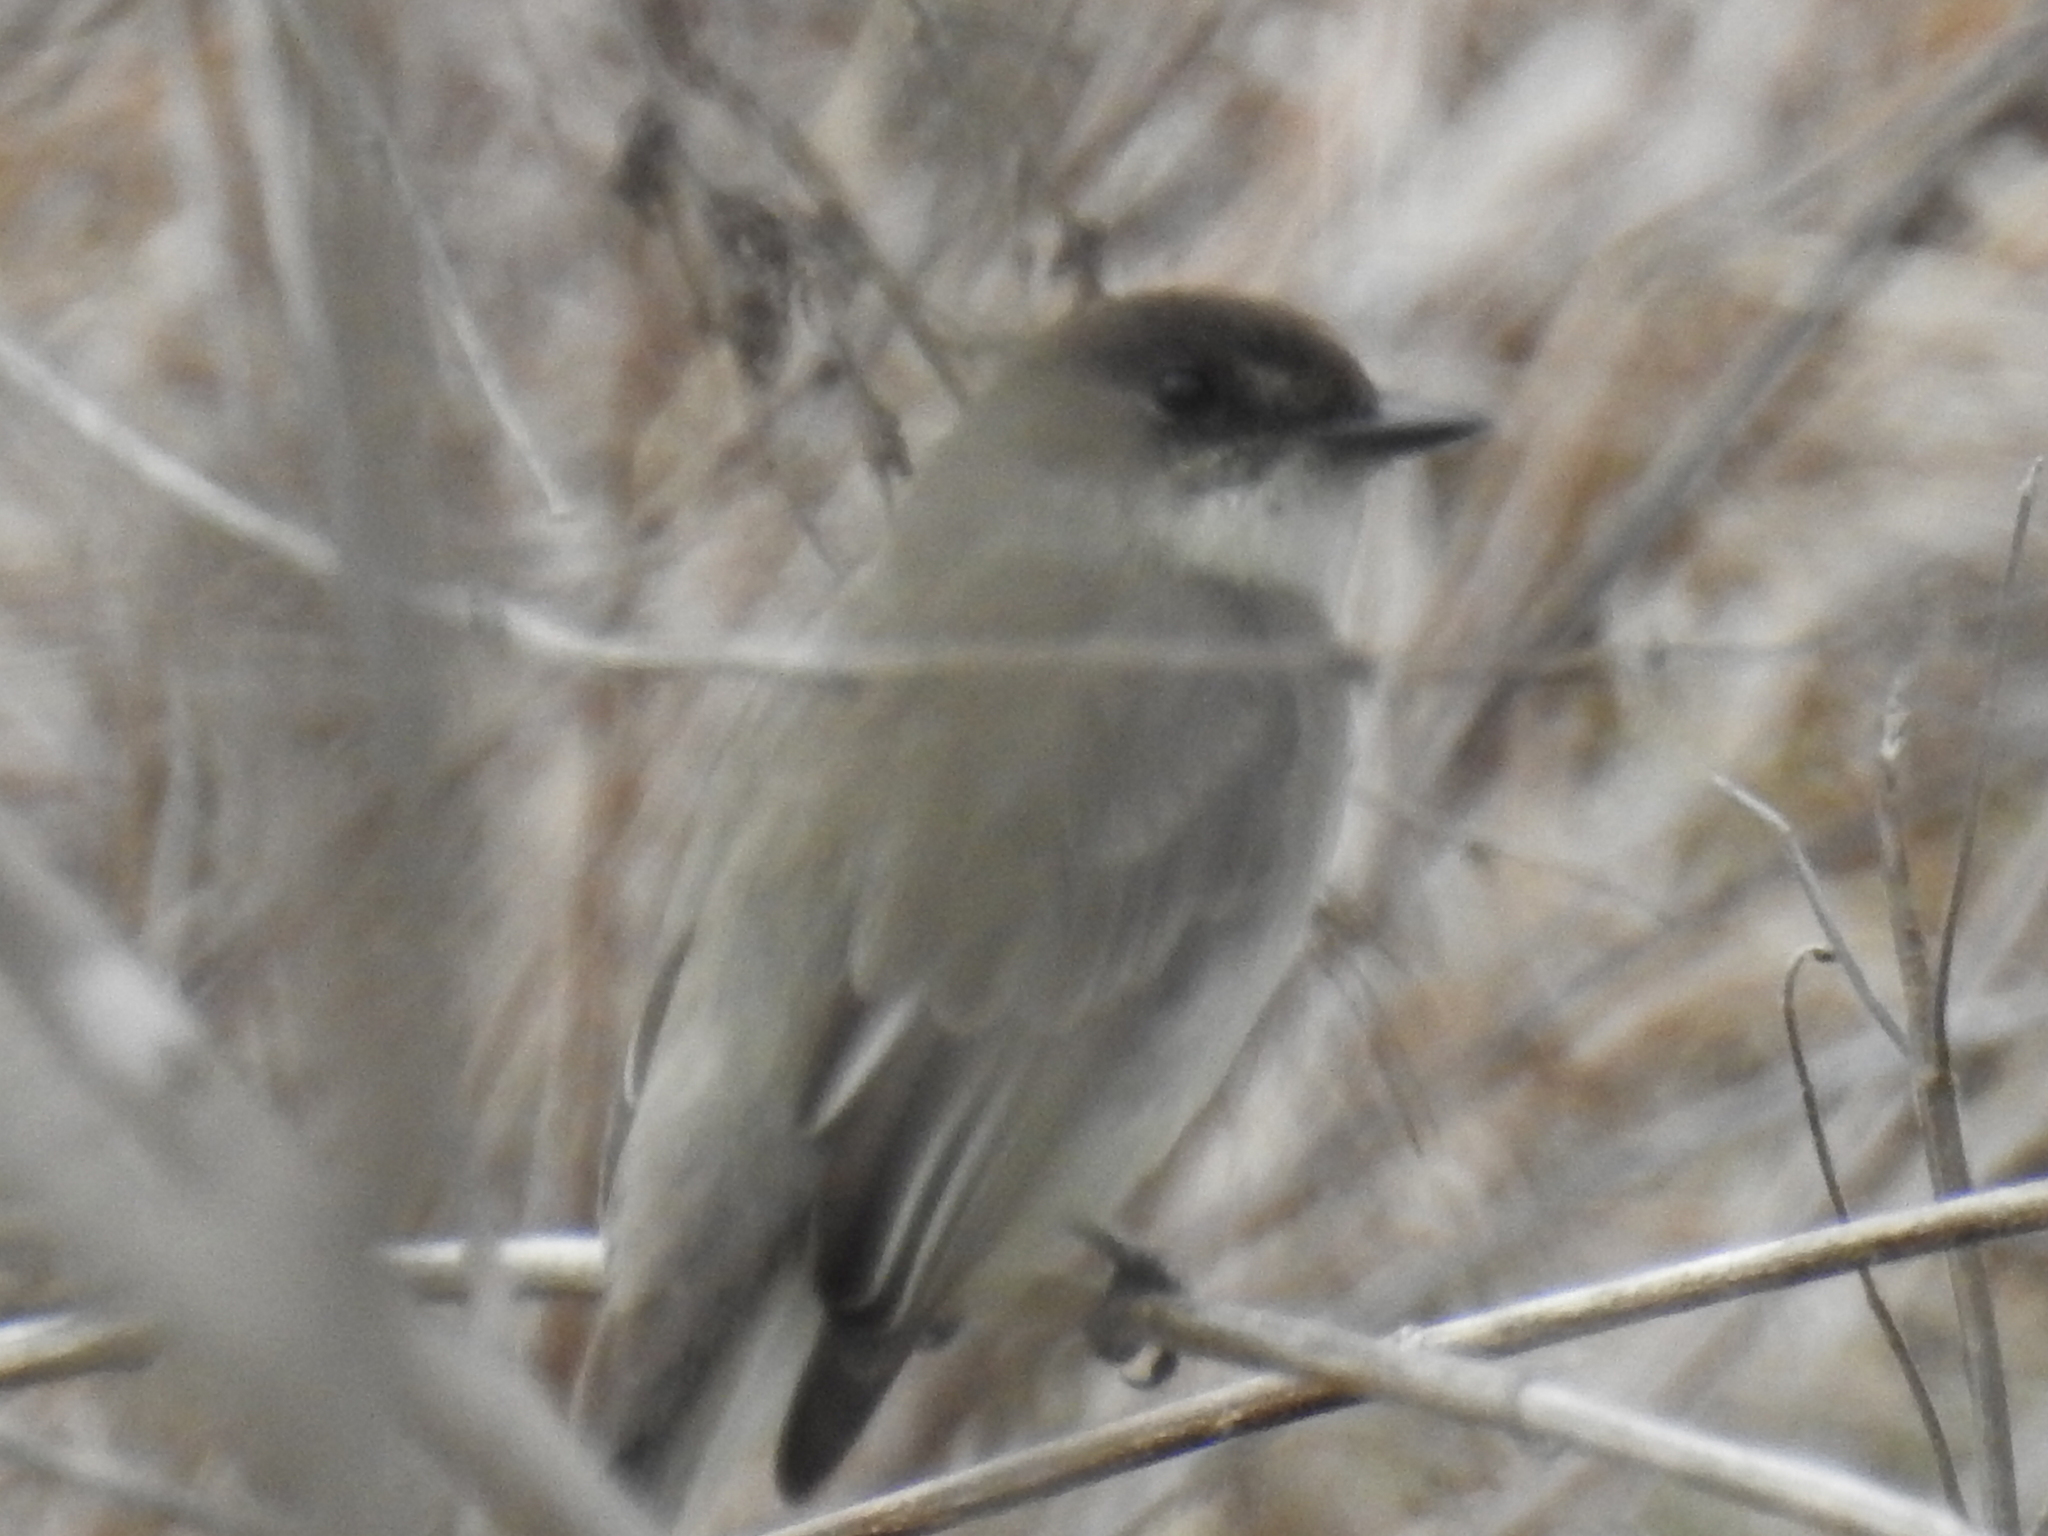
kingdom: Animalia
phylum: Chordata
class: Aves
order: Passeriformes
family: Tyrannidae
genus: Sayornis
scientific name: Sayornis phoebe
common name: Eastern phoebe
